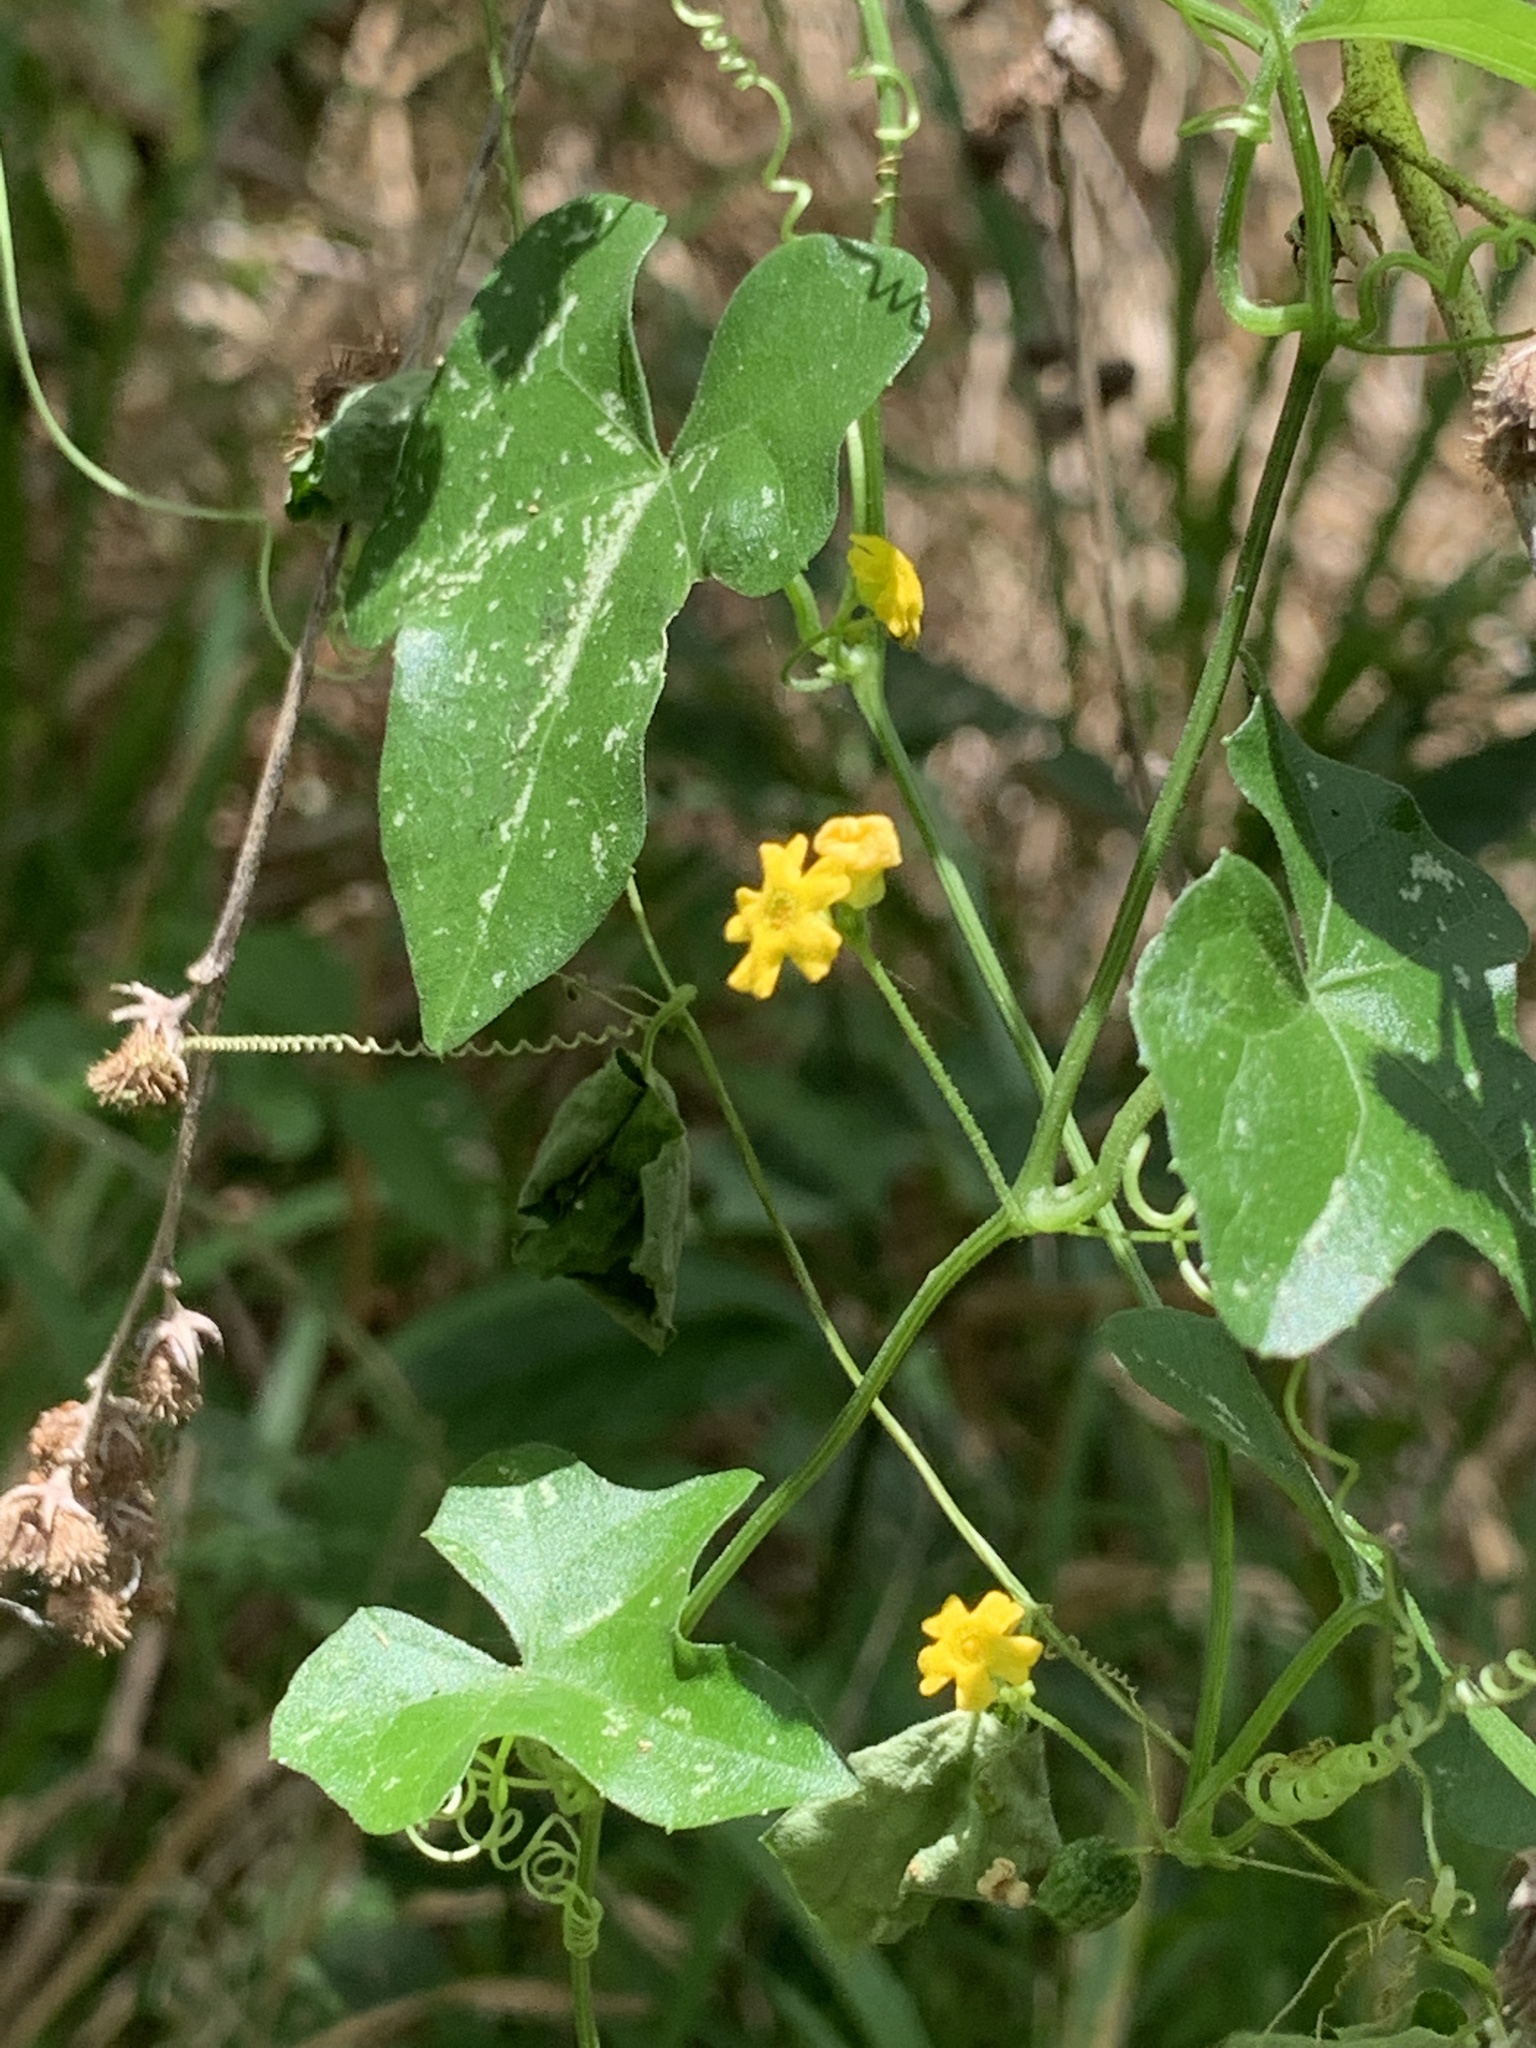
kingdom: Plantae
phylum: Tracheophyta
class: Magnoliopsida
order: Cucurbitales
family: Cucurbitaceae
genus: Melothria
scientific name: Melothria pendula
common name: Creeping-cucumber
